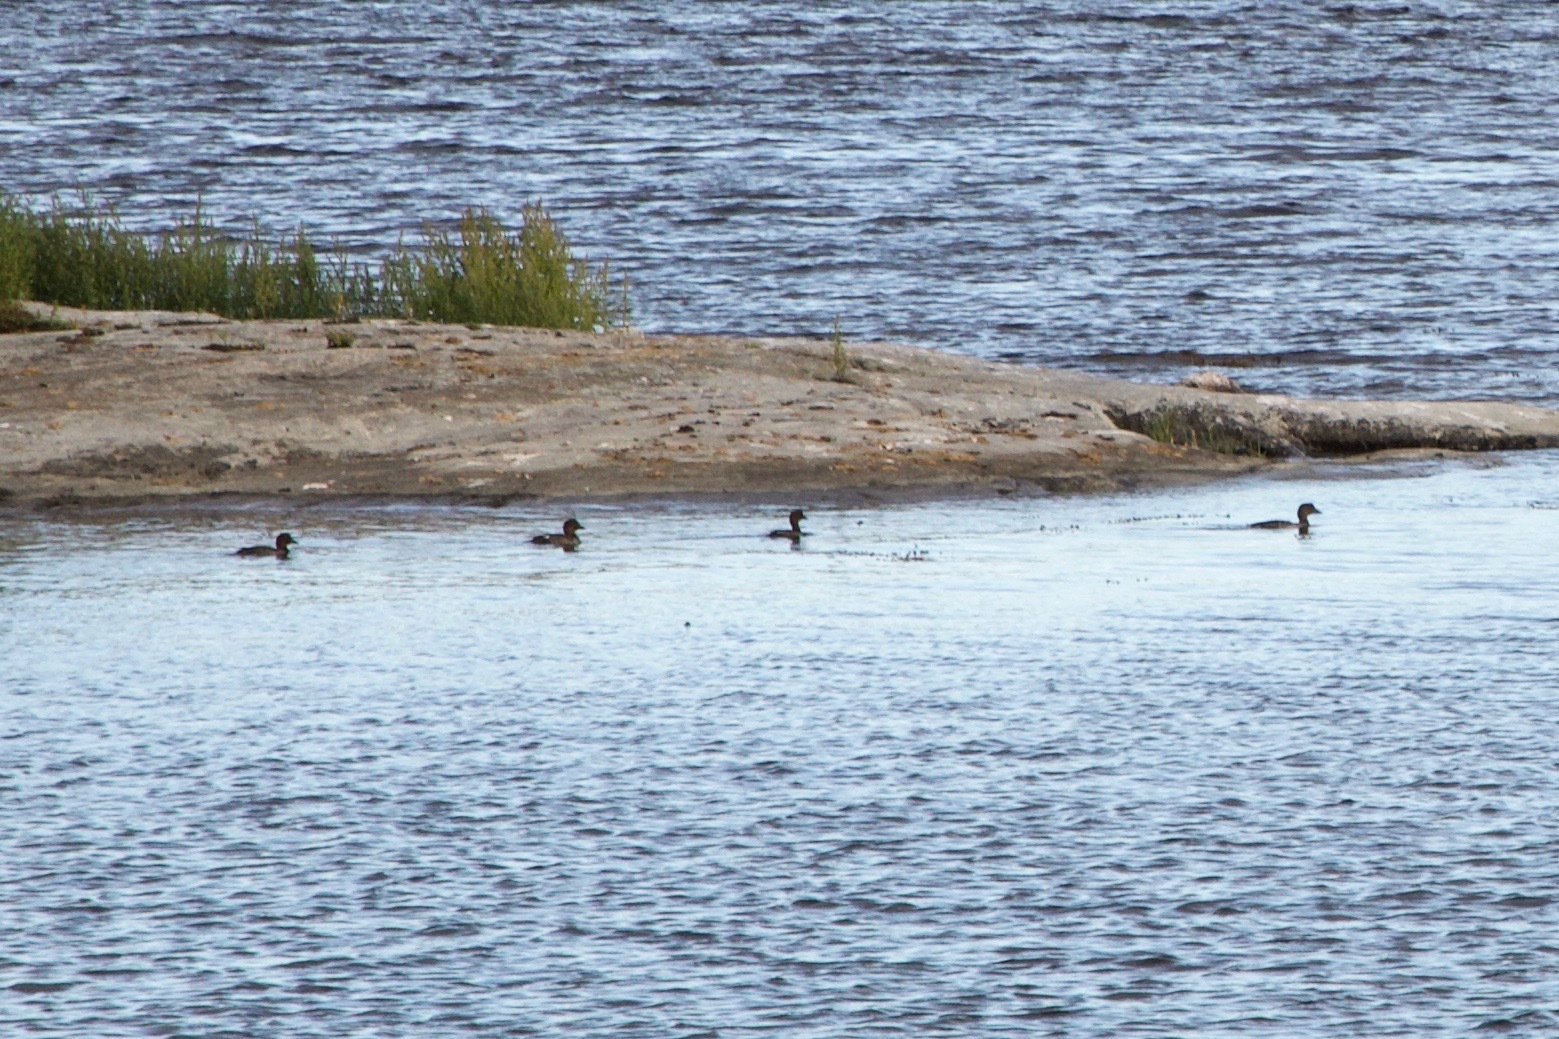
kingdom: Animalia
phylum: Chordata
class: Aves
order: Anseriformes
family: Anatidae
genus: Bucephala
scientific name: Bucephala clangula
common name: Common goldeneye
